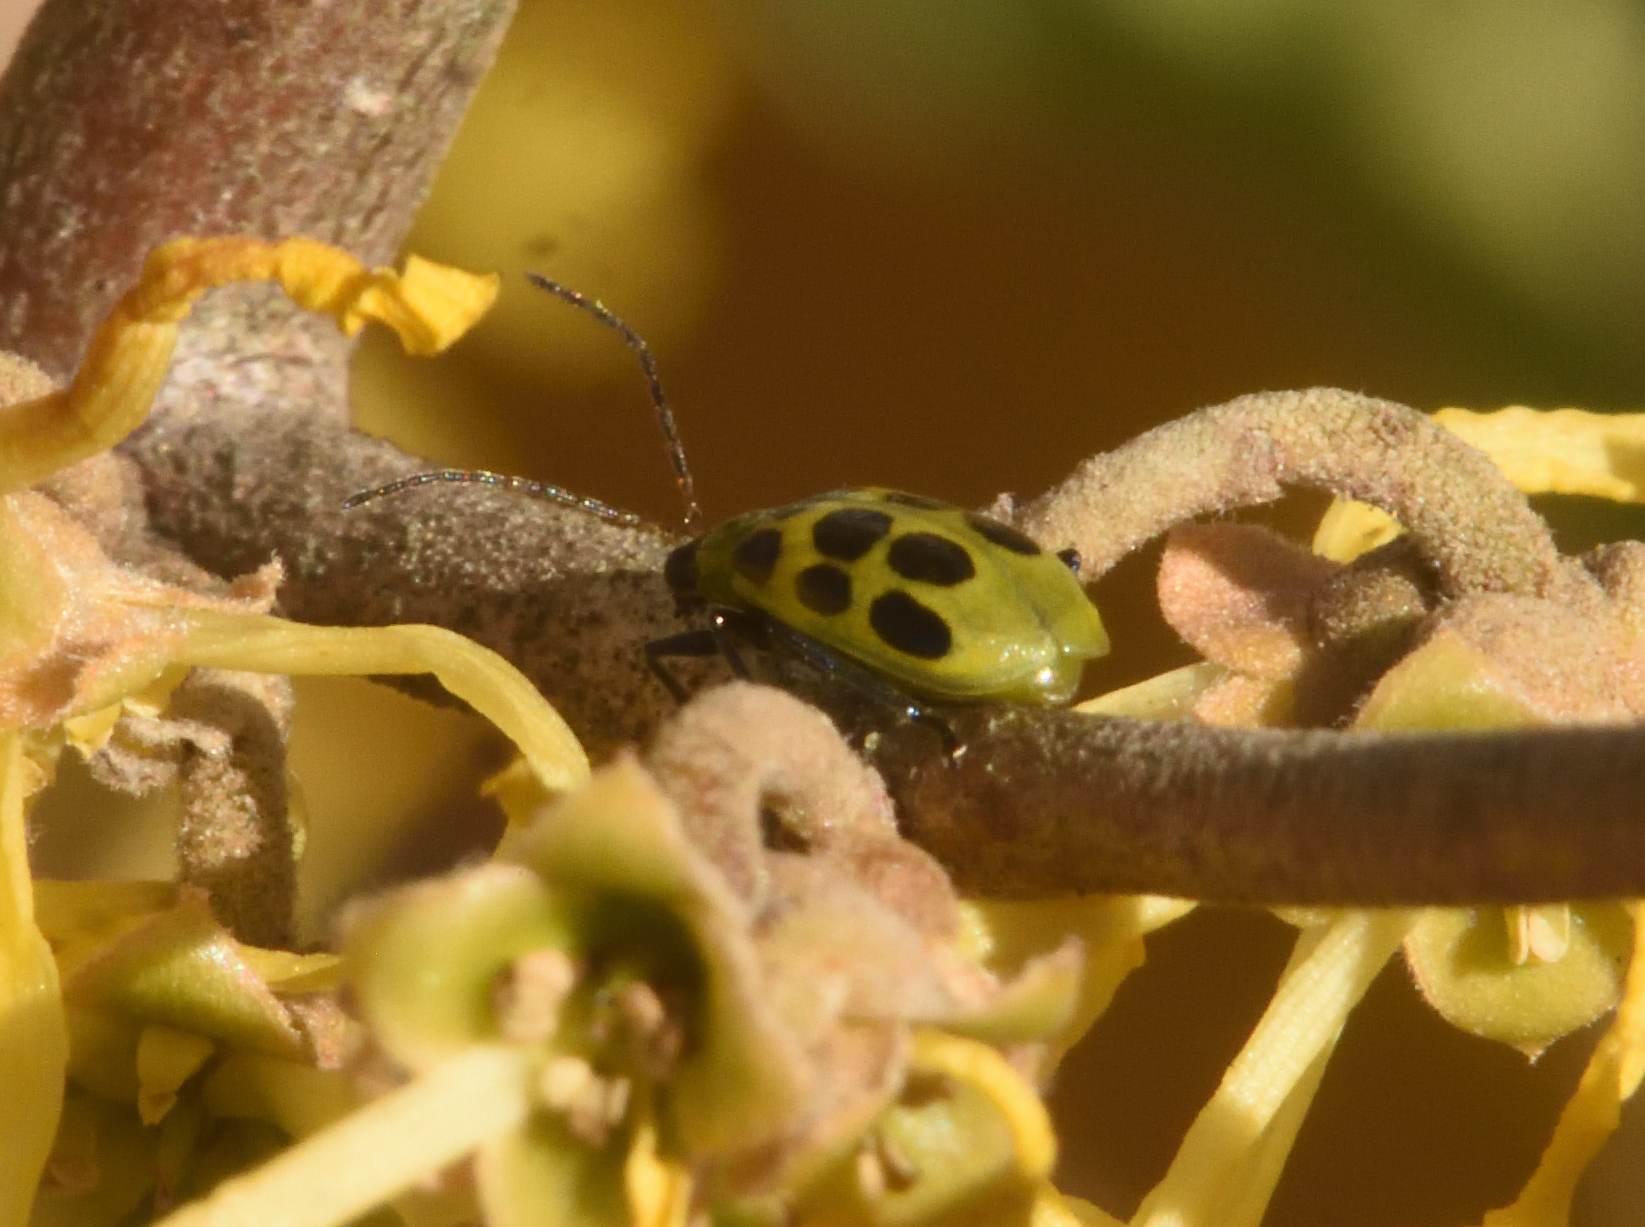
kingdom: Animalia
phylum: Arthropoda
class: Insecta
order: Coleoptera
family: Chrysomelidae
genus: Diabrotica
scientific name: Diabrotica undecimpunctata
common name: Spotted cucumber beetle
